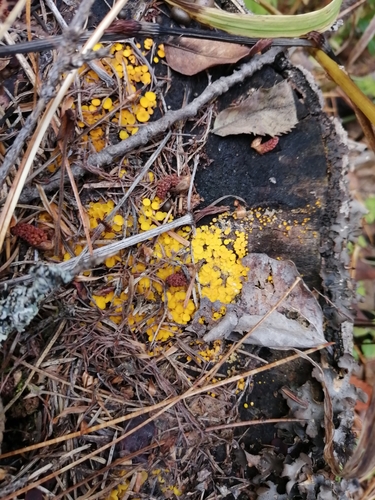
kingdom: Fungi
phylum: Ascomycota
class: Leotiomycetes
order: Helotiales
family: Pezizellaceae
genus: Calycina
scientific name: Calycina citrina
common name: Yellow fairy cups
